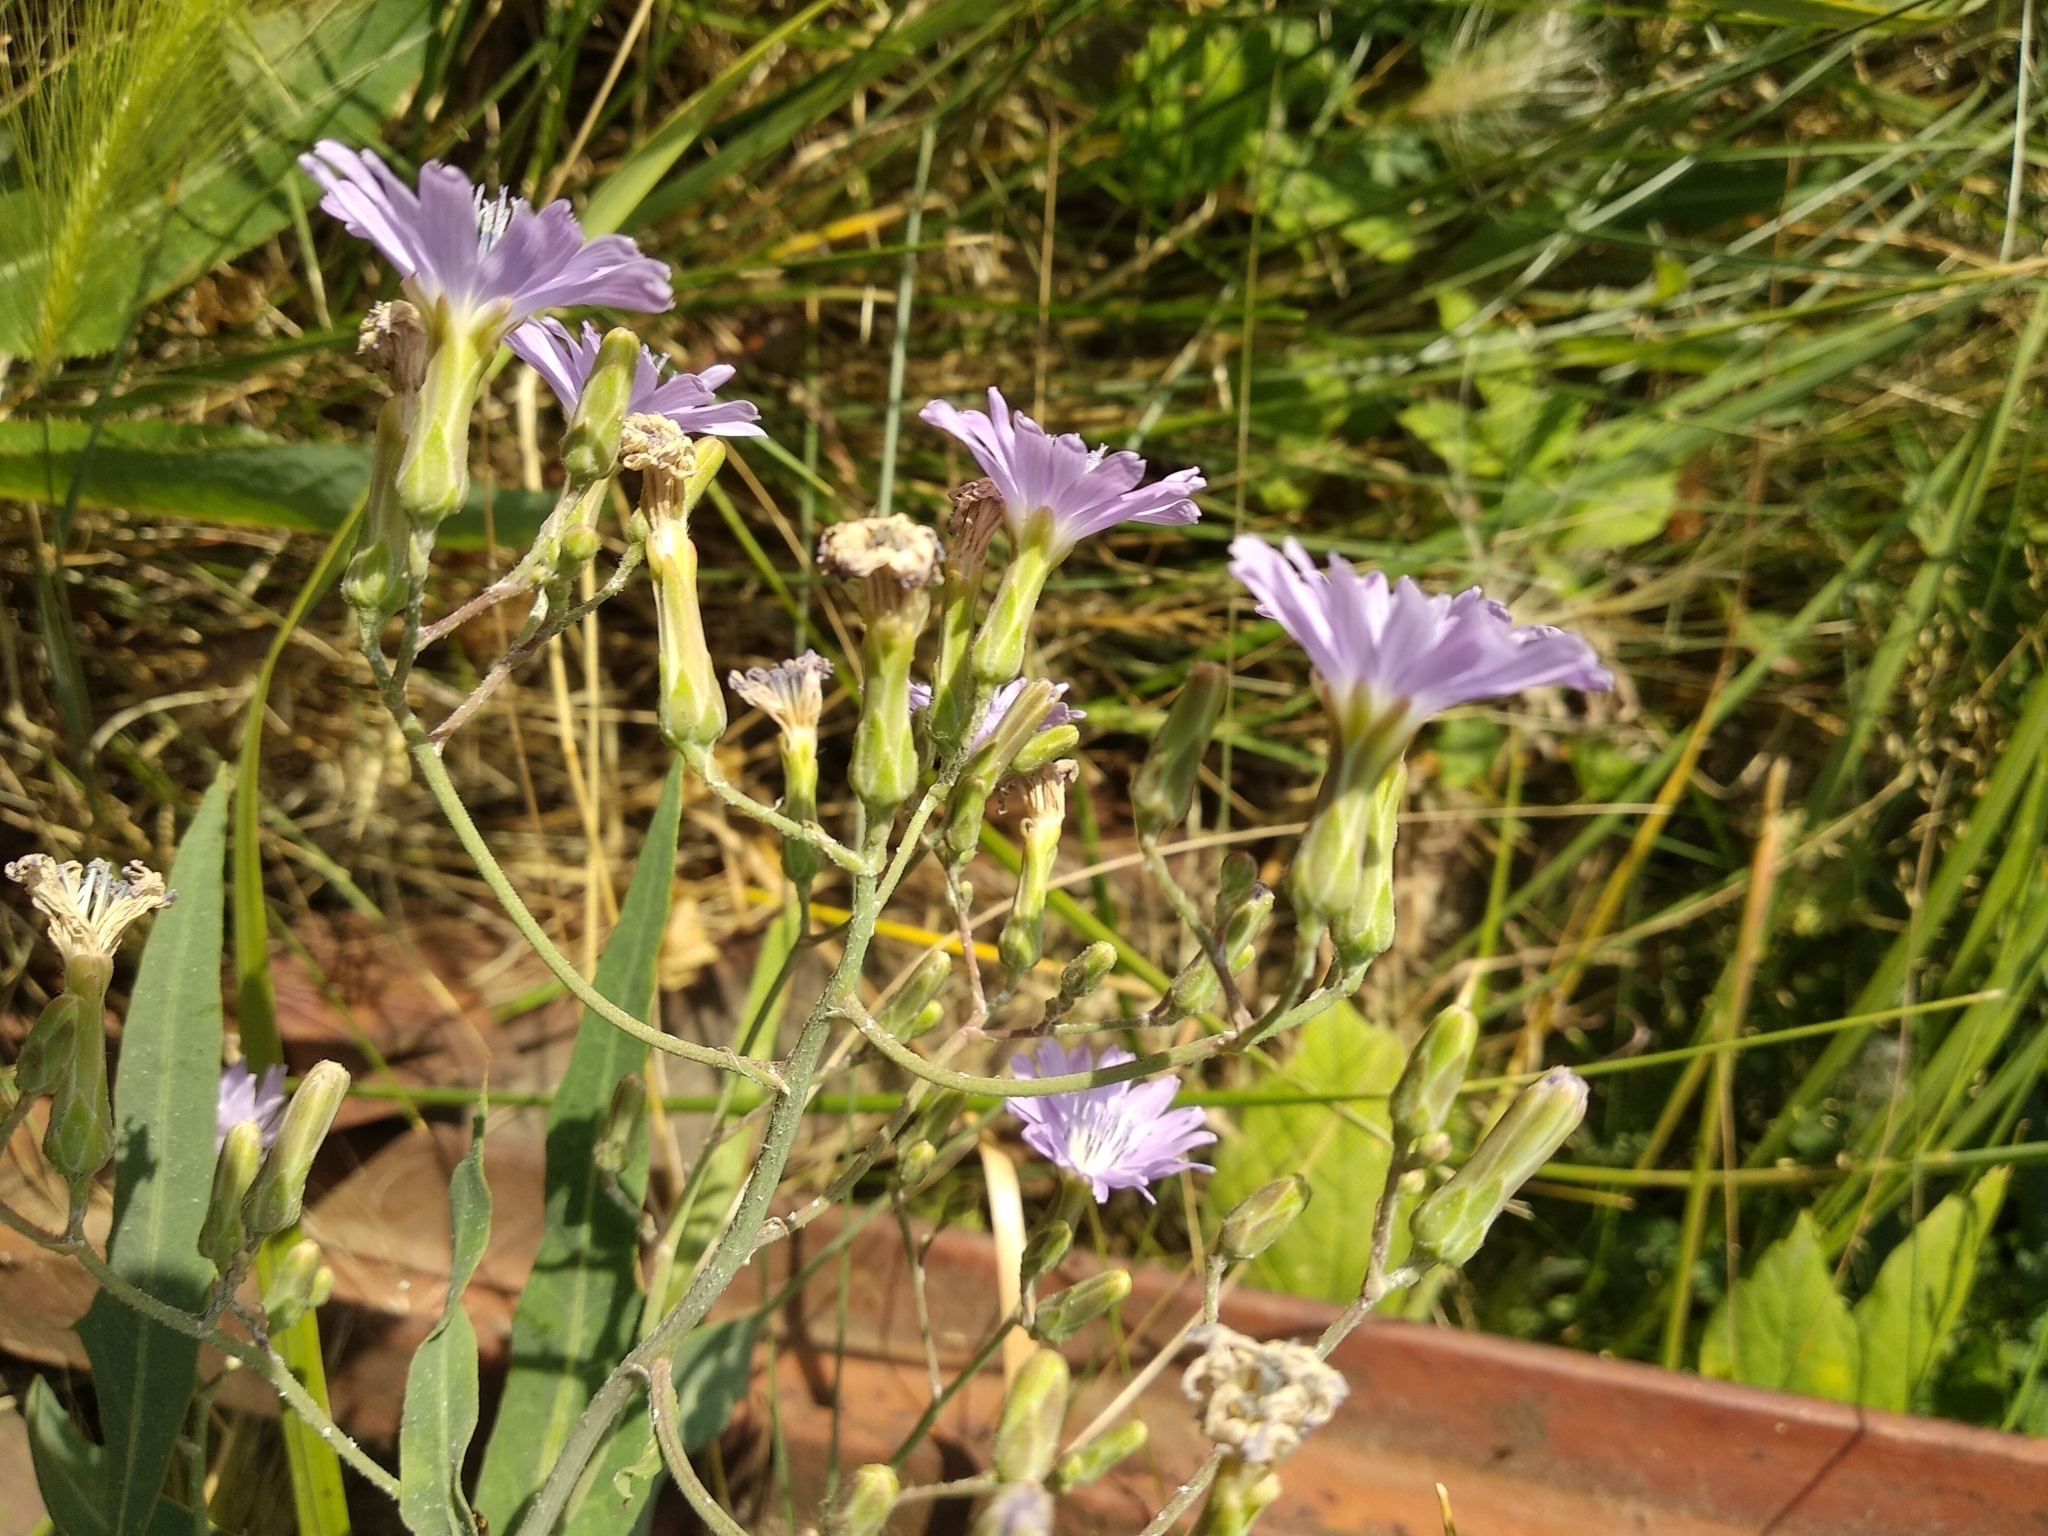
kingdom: Plantae
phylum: Tracheophyta
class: Magnoliopsida
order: Asterales
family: Asteraceae
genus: Lactuca
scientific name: Lactuca tatarica
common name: Blue lettuce
